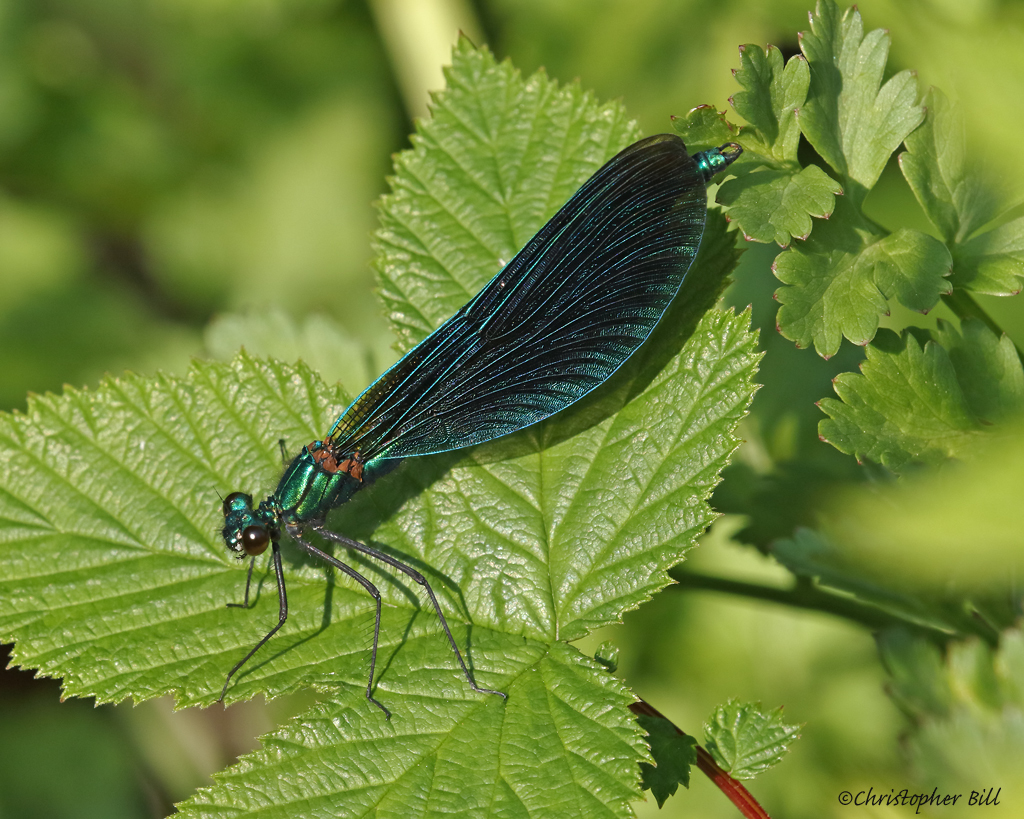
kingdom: Animalia
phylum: Arthropoda
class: Insecta
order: Odonata
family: Calopterygidae
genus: Calopteryx
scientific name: Calopteryx virgo
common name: Beautiful demoiselle
